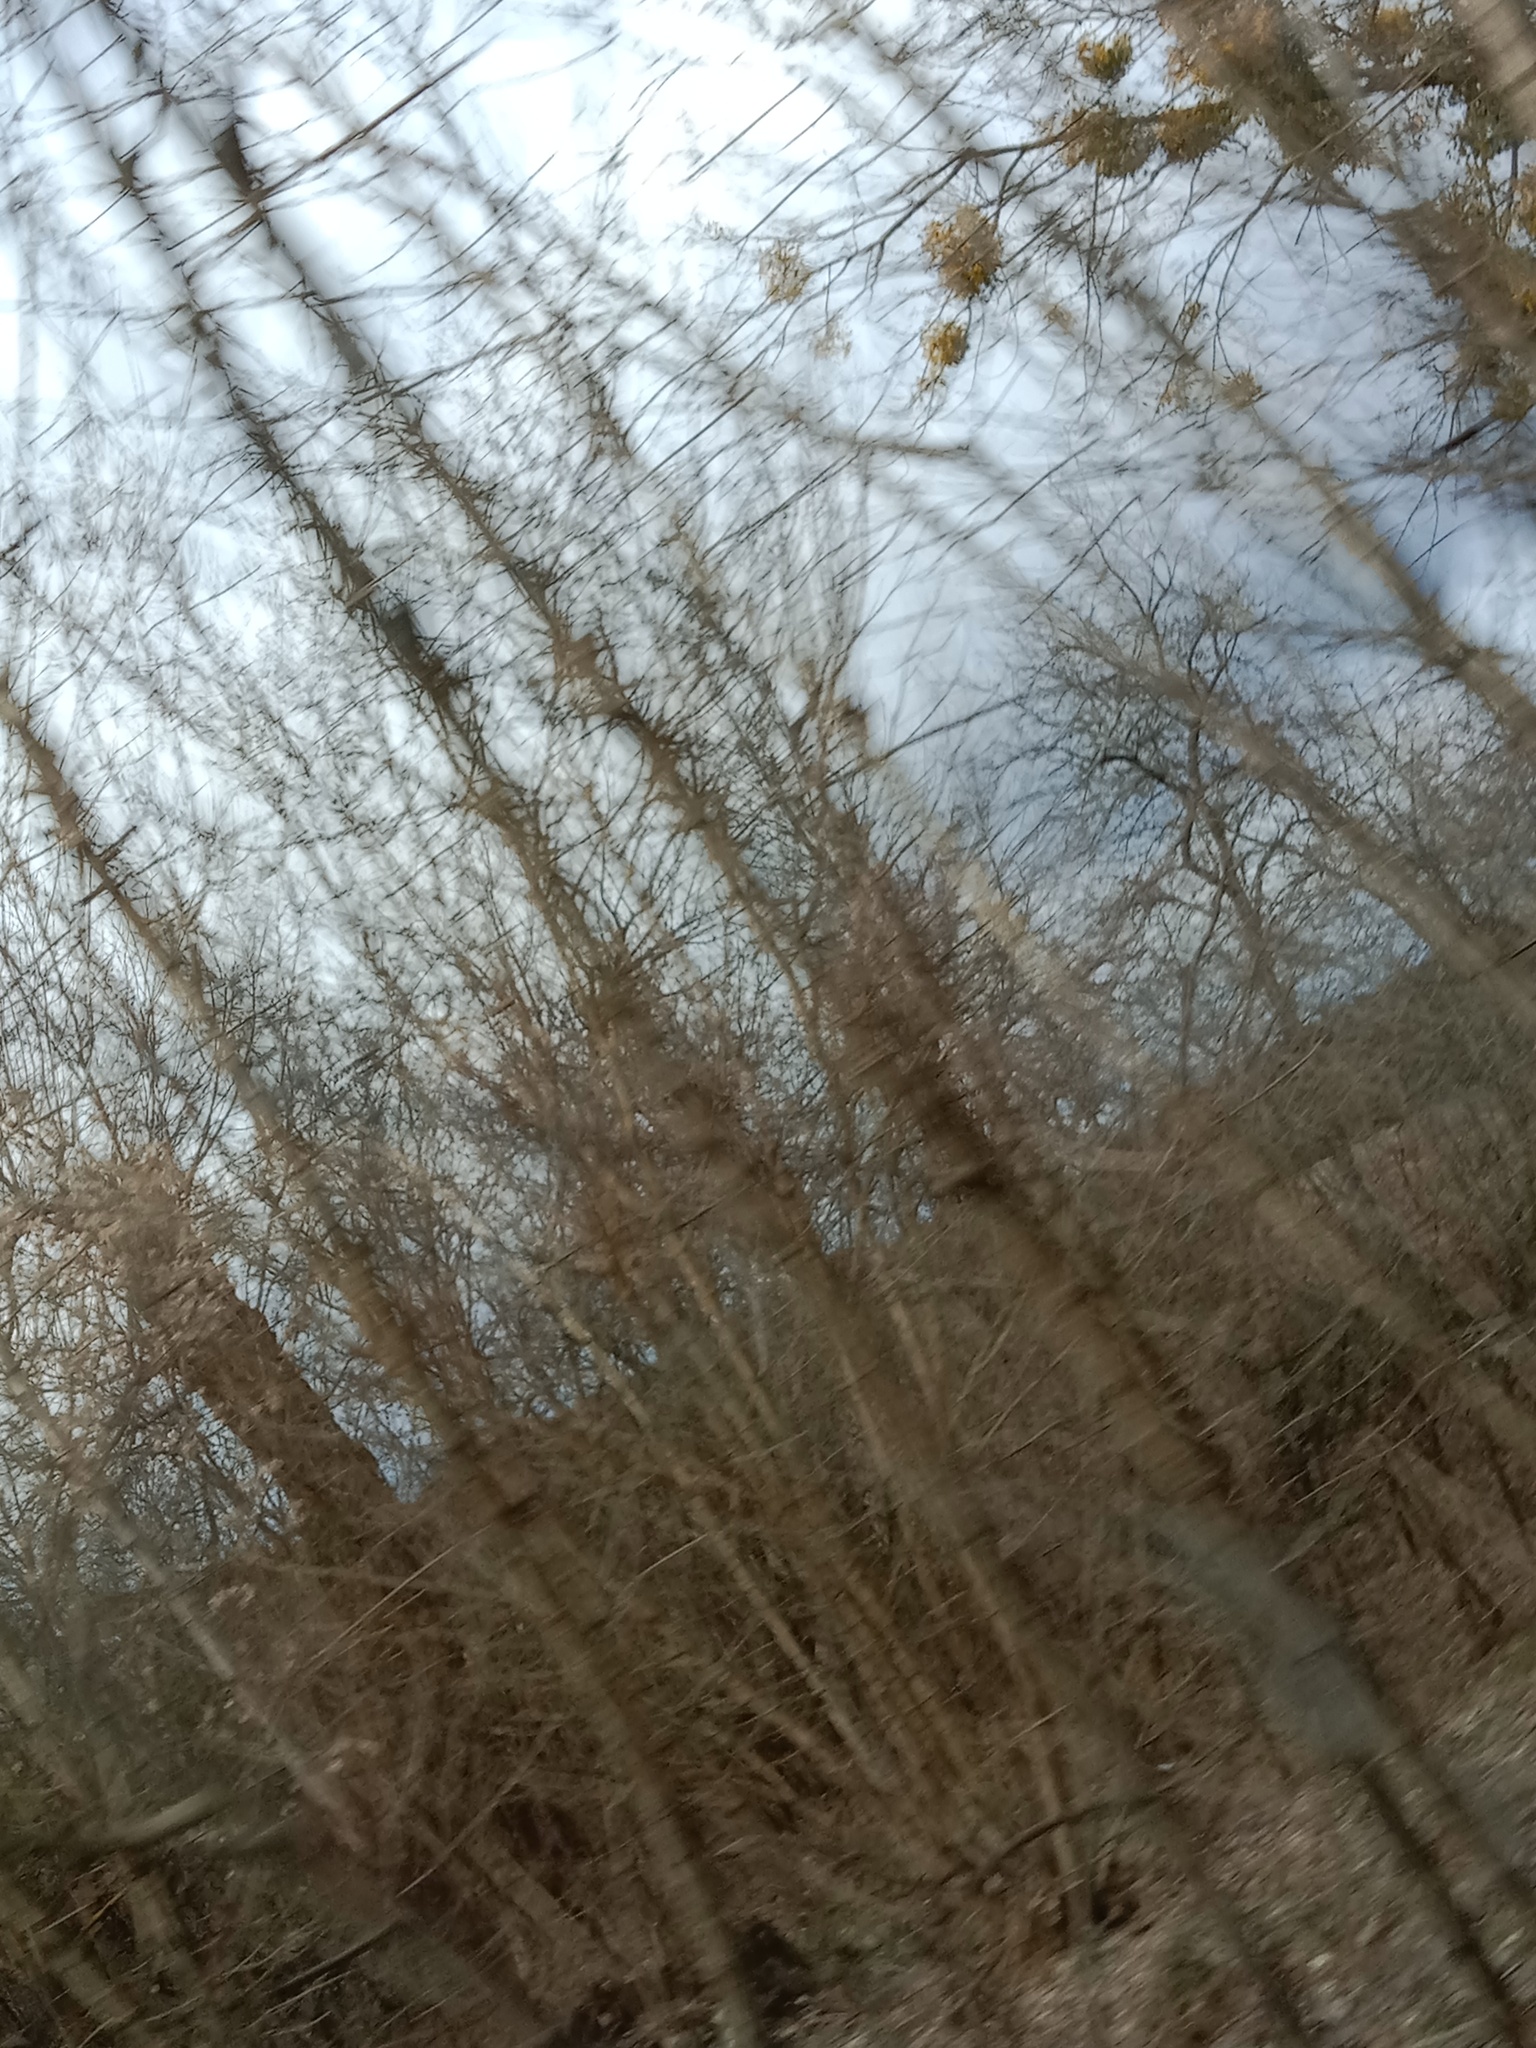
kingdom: Plantae
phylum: Tracheophyta
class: Magnoliopsida
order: Santalales
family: Viscaceae
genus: Viscum
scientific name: Viscum album
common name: Mistletoe
